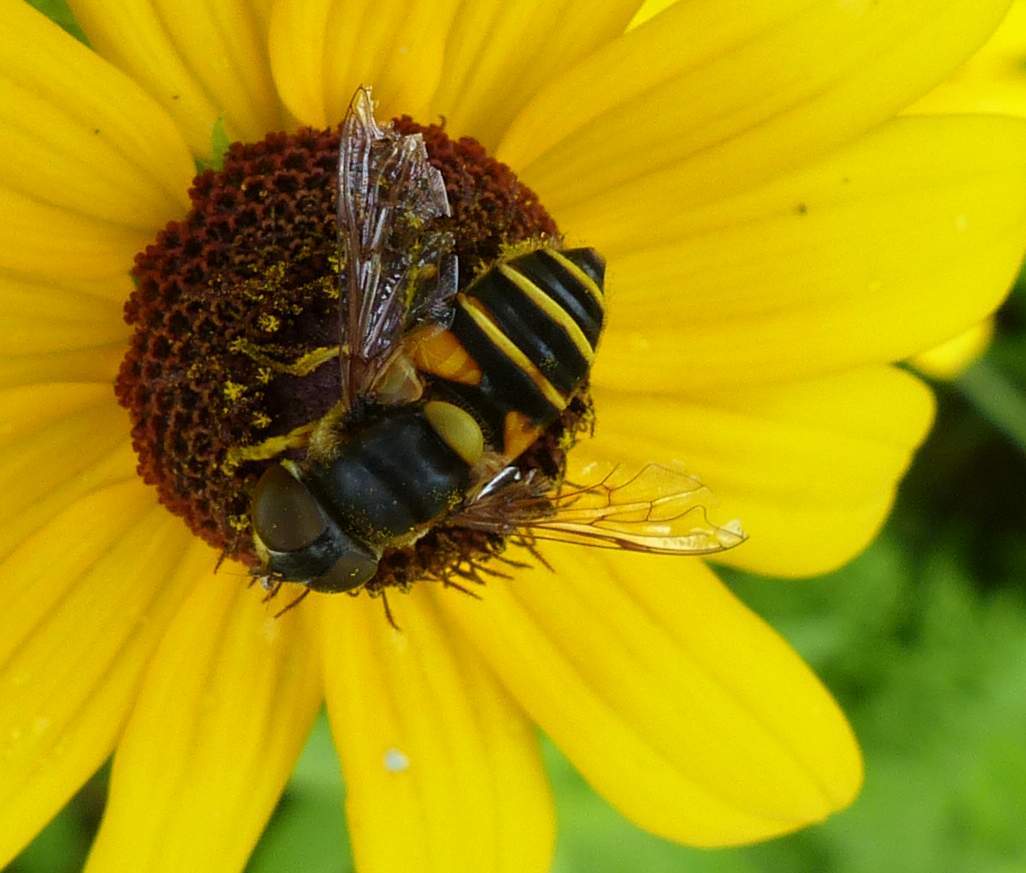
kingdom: Animalia
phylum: Arthropoda
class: Insecta
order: Diptera
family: Syrphidae
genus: Eristalis
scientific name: Eristalis transversa
